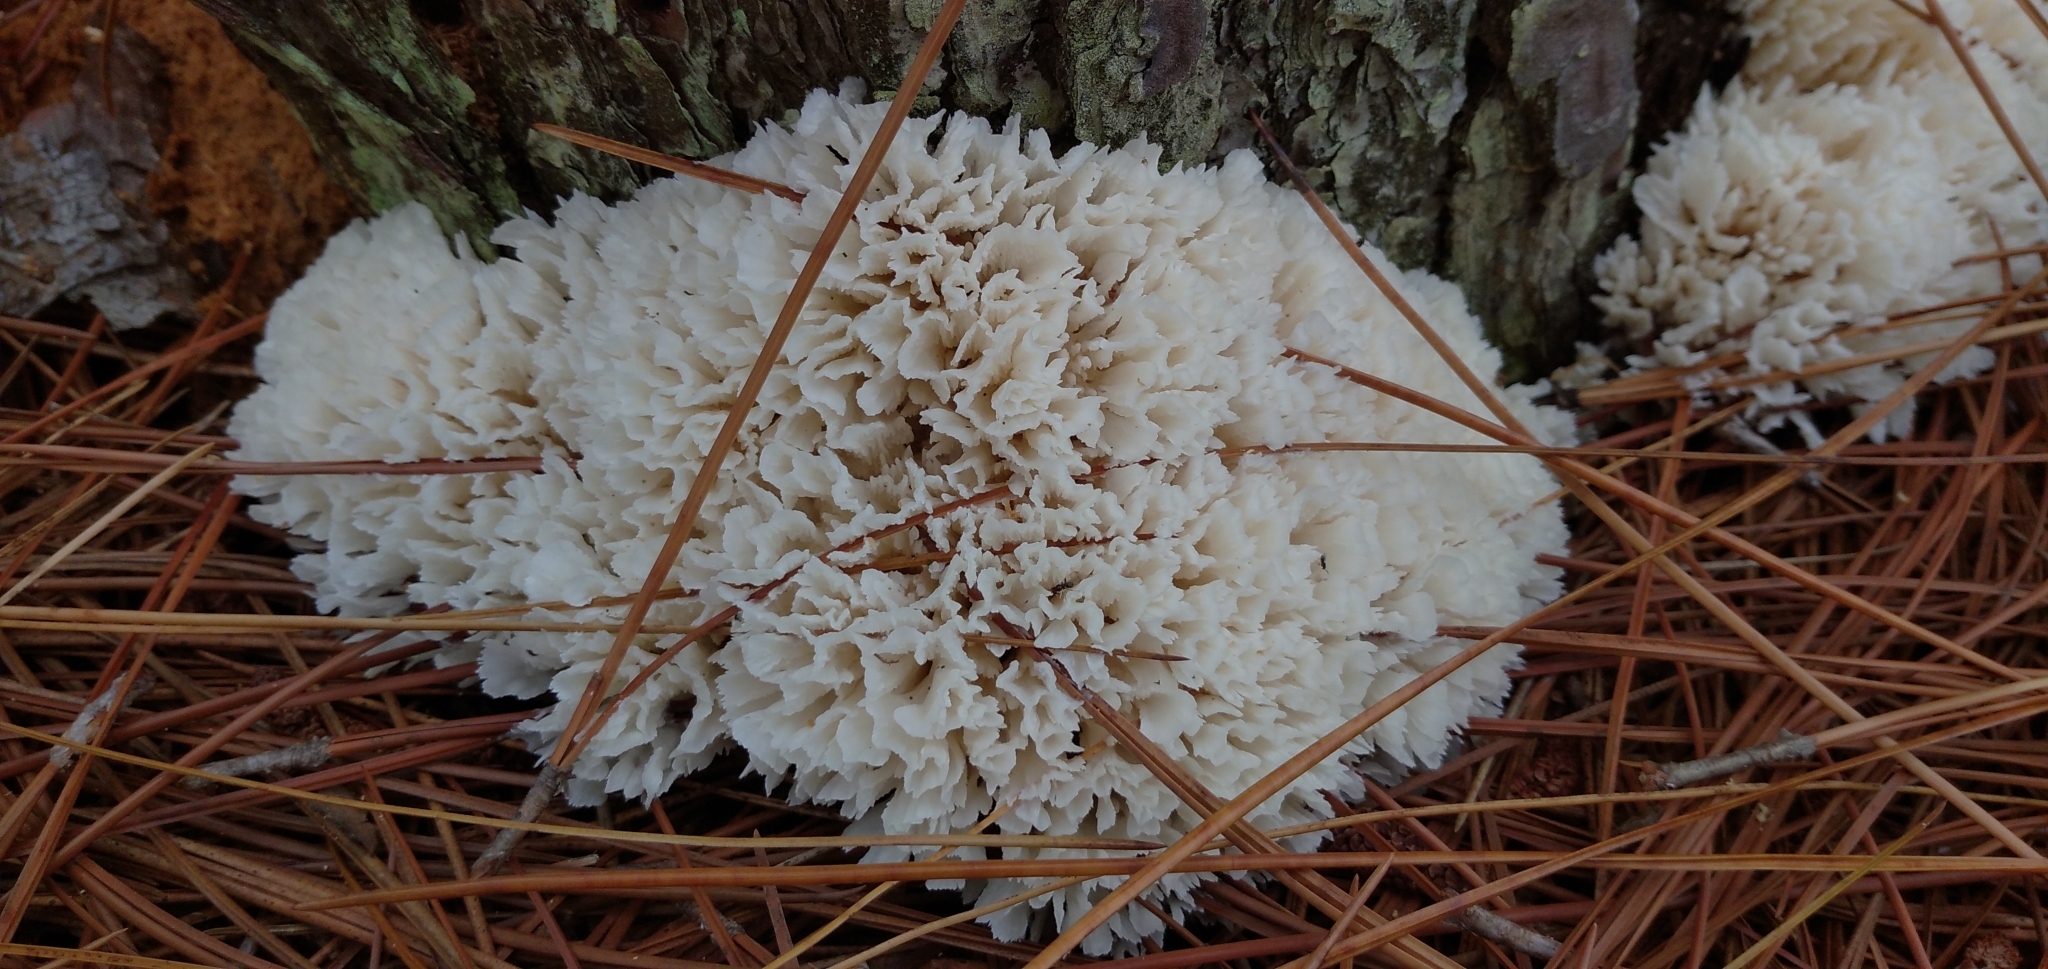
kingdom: Fungi
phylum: Basidiomycota
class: Agaricomycetes
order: Polyporales
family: Irpicaceae
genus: Irpex
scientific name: Irpex rosettiformis
